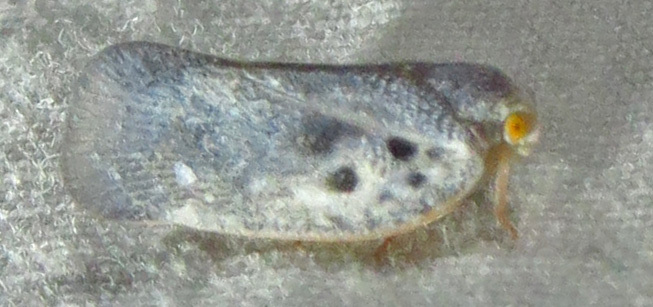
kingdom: Animalia
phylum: Arthropoda
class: Insecta
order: Hemiptera
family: Flatidae
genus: Metcalfa
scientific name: Metcalfa pruinosa
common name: Citrus flatid planthopper
